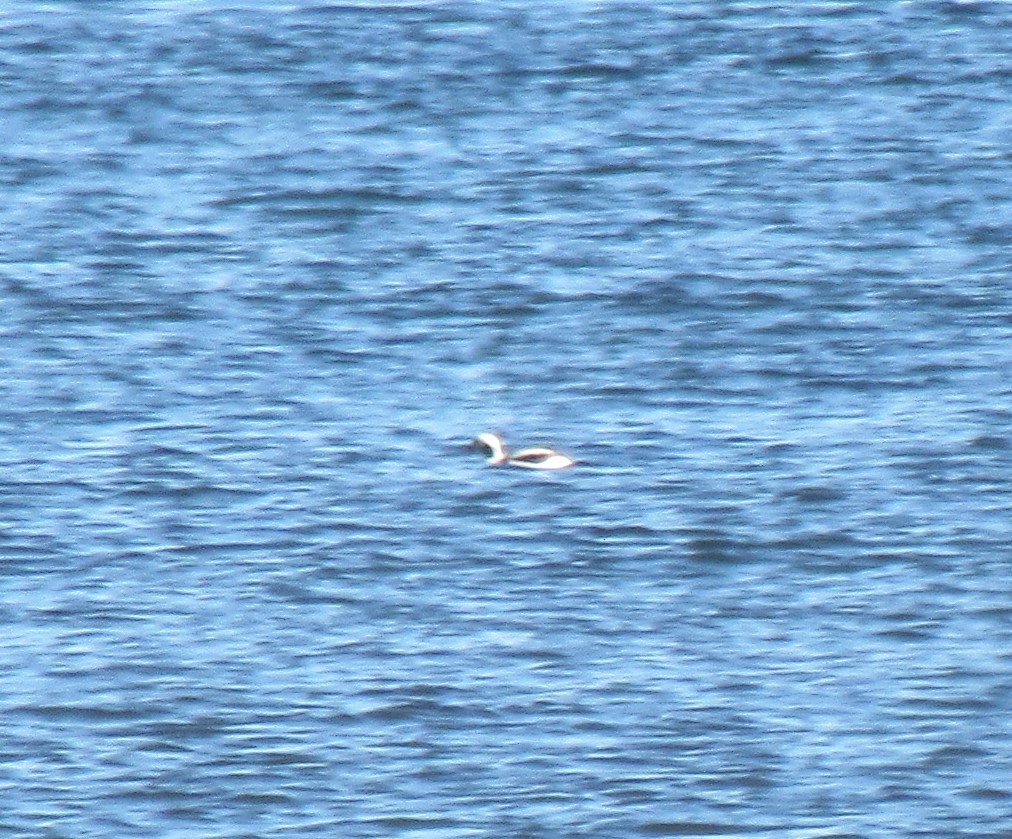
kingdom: Animalia
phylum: Chordata
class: Aves
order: Anseriformes
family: Anatidae
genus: Clangula
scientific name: Clangula hyemalis
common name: Long-tailed duck
